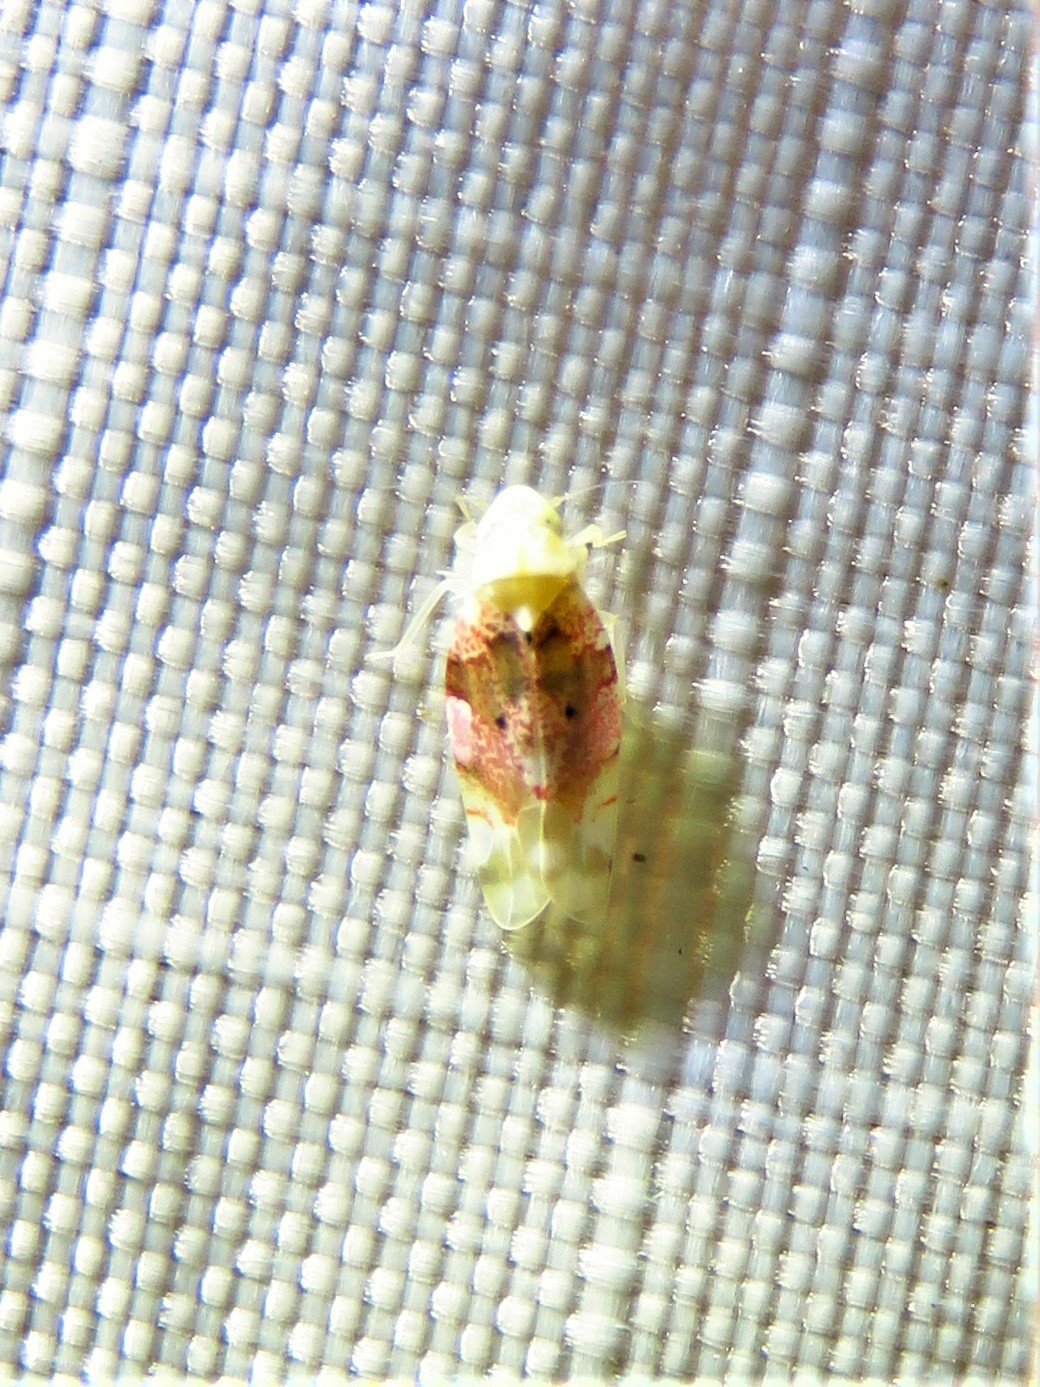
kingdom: Animalia
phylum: Arthropoda
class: Insecta
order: Hemiptera
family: Cicadellidae
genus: Hymetta
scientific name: Hymetta anthisma
